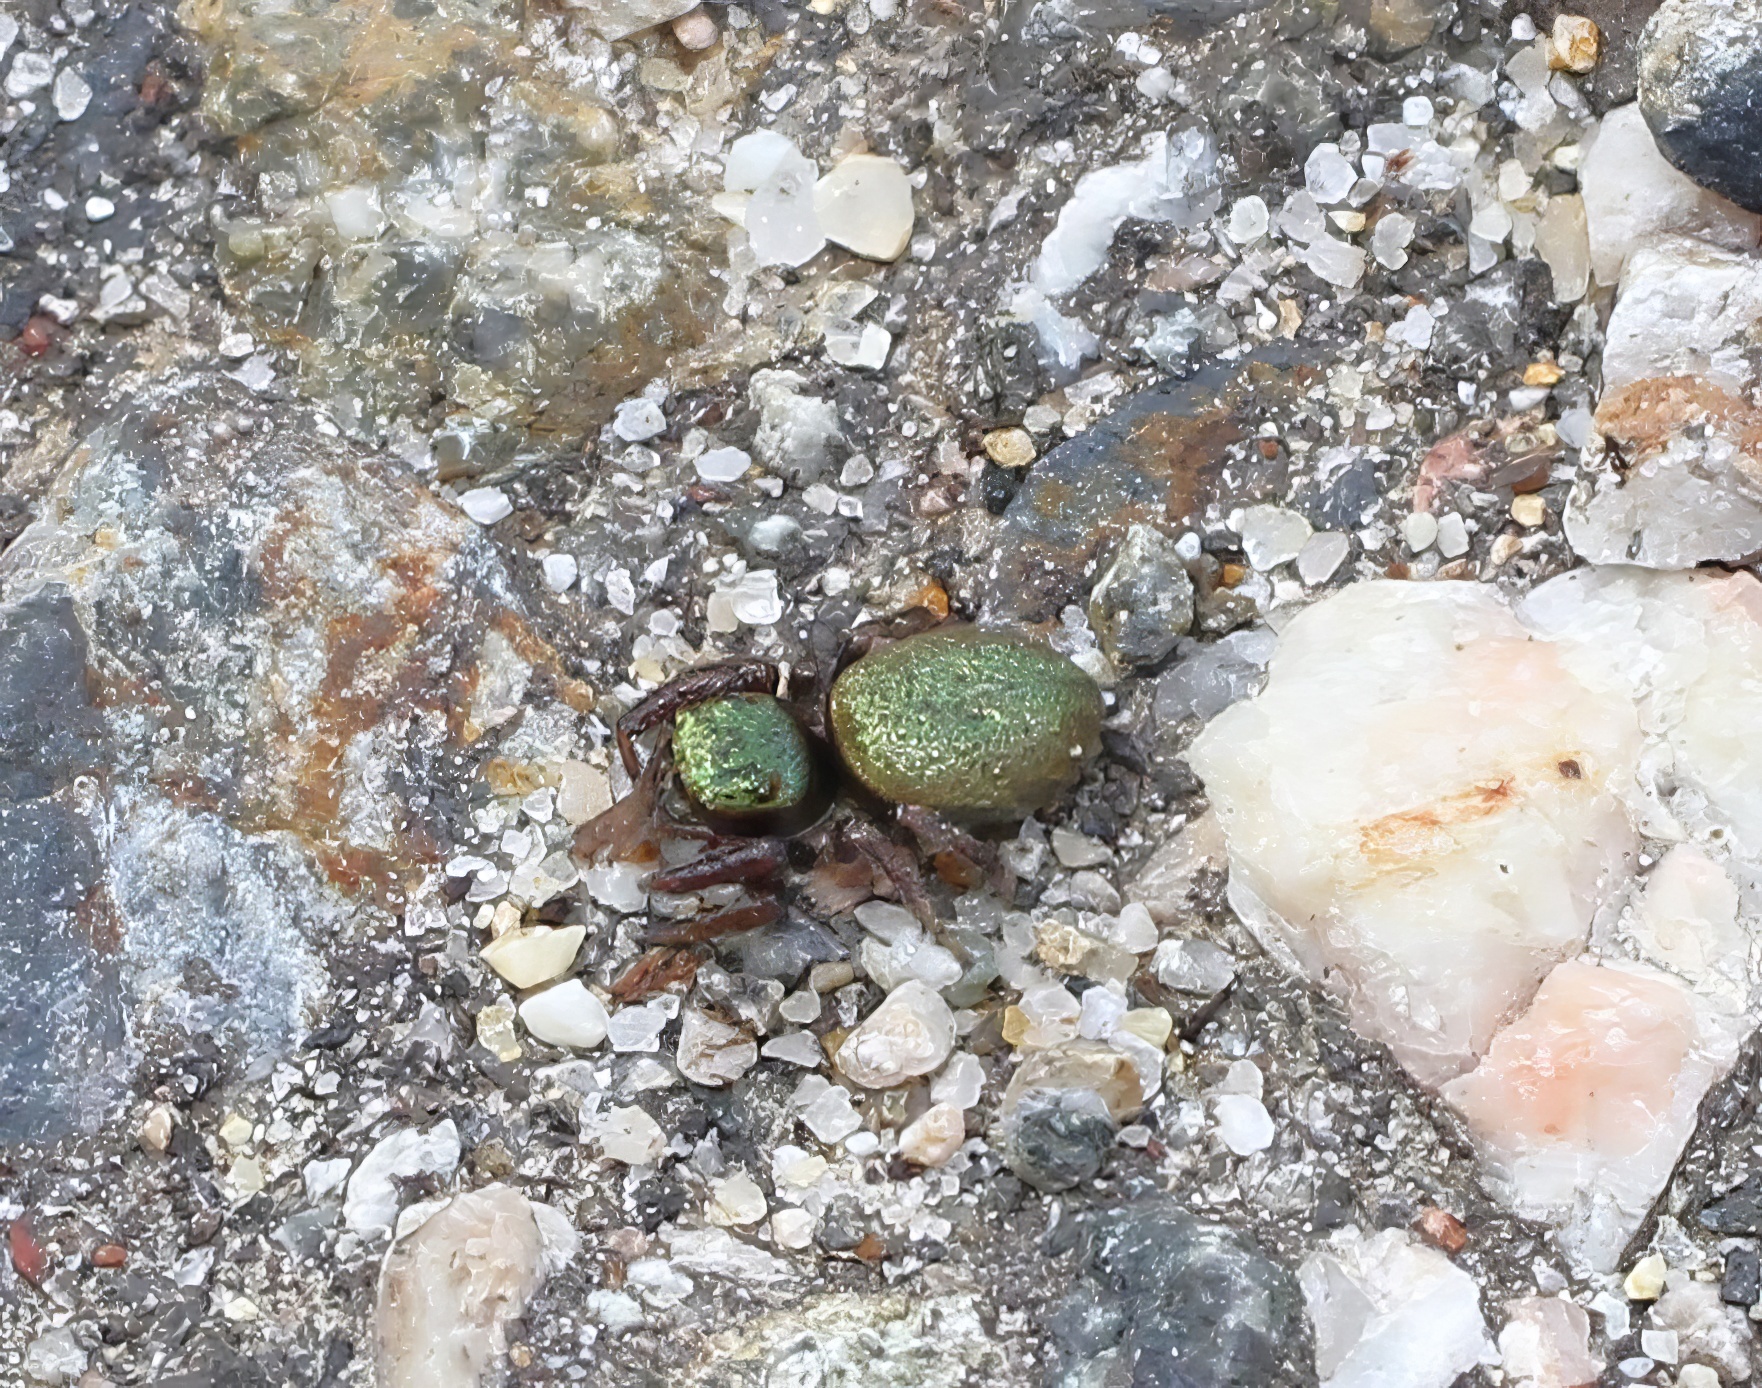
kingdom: Animalia
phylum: Arthropoda
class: Arachnida
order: Araneae
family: Salticidae
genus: Messua
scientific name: Messua limbata
